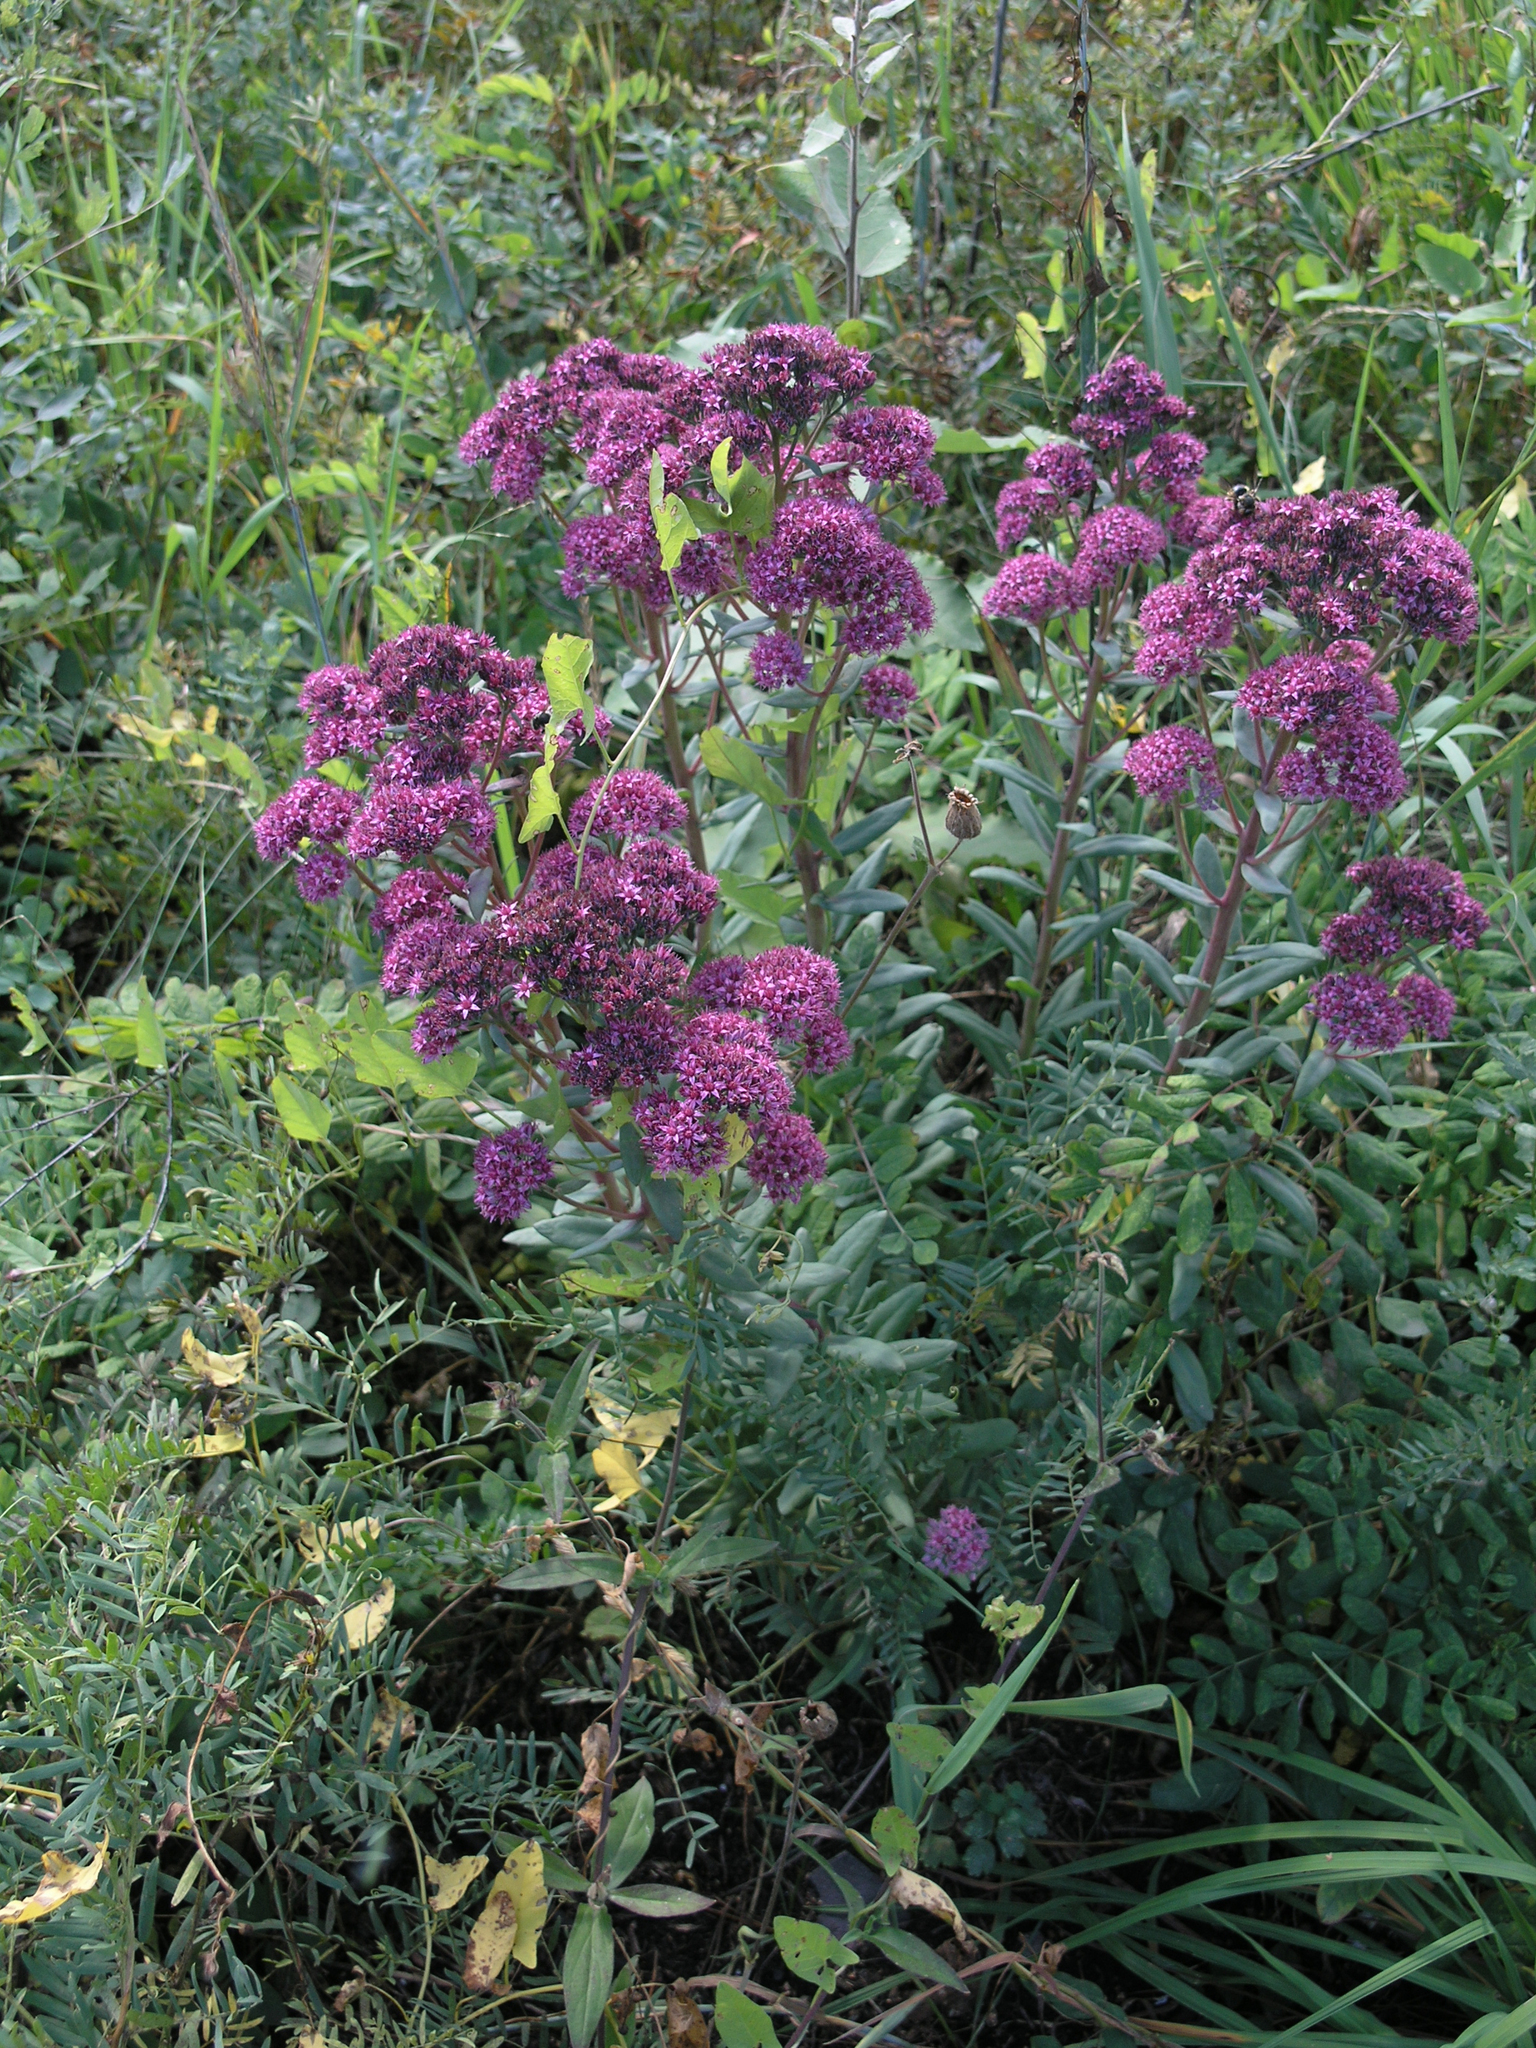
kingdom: Plantae
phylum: Tracheophyta
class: Magnoliopsida
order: Saxifragales
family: Crassulaceae
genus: Hylotelephium
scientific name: Hylotelephium telephium
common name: Live-forever
